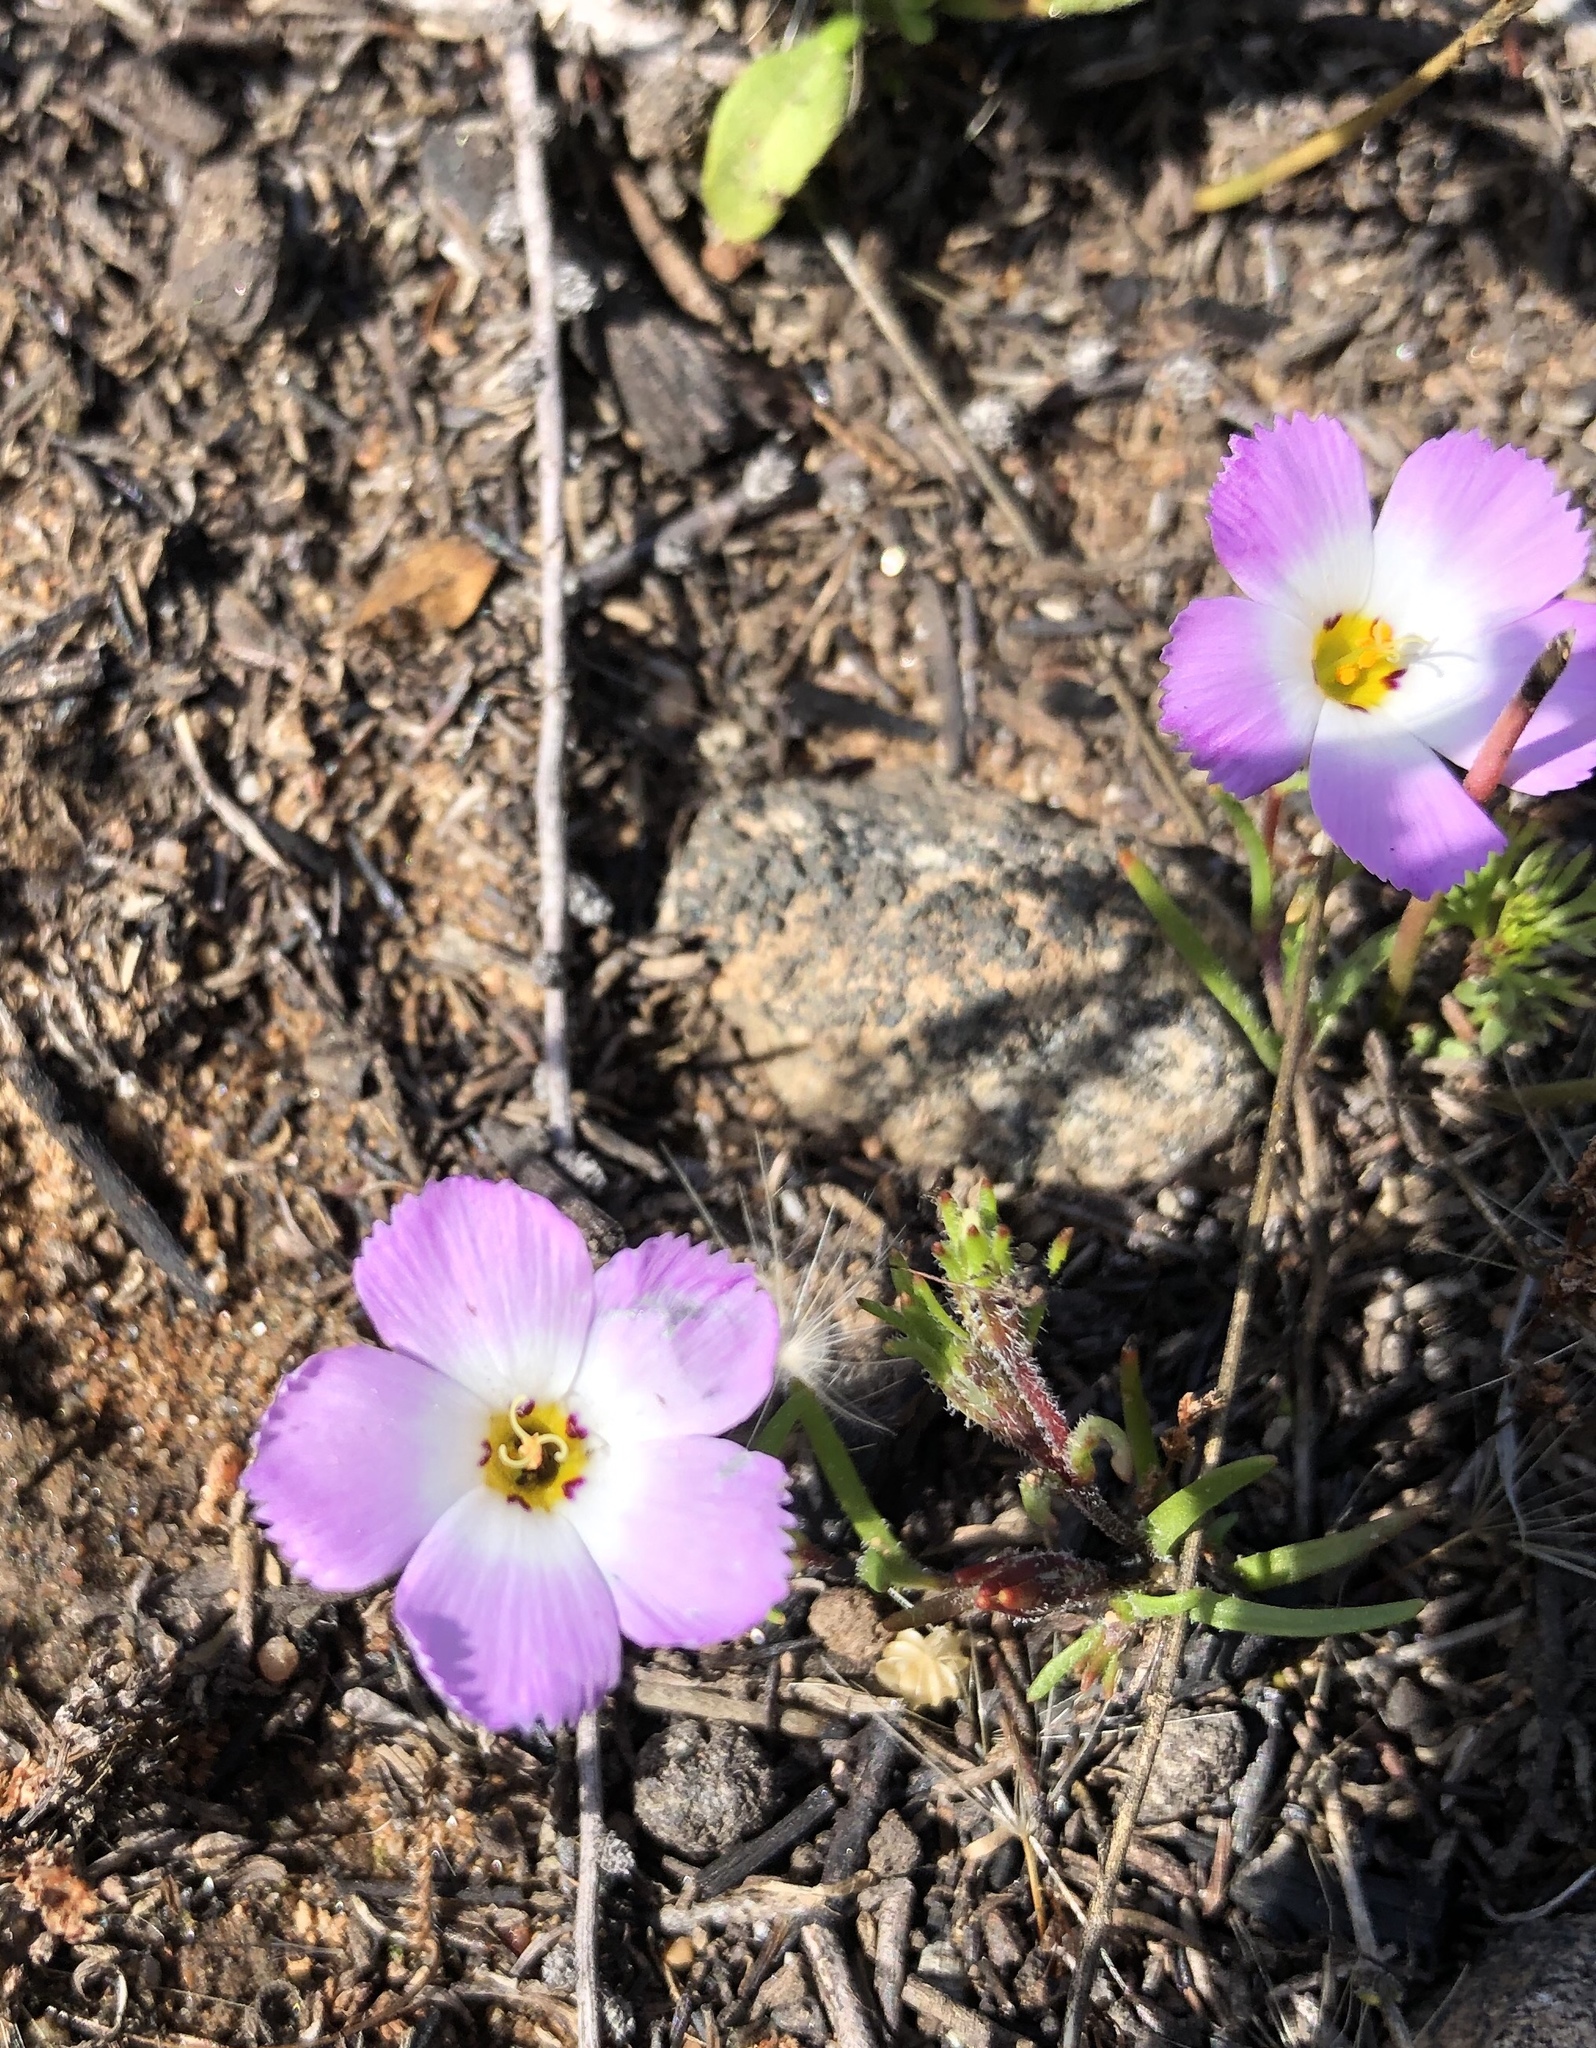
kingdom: Plantae
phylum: Tracheophyta
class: Magnoliopsida
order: Ericales
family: Polemoniaceae
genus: Linanthus
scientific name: Linanthus dianthiflorus
